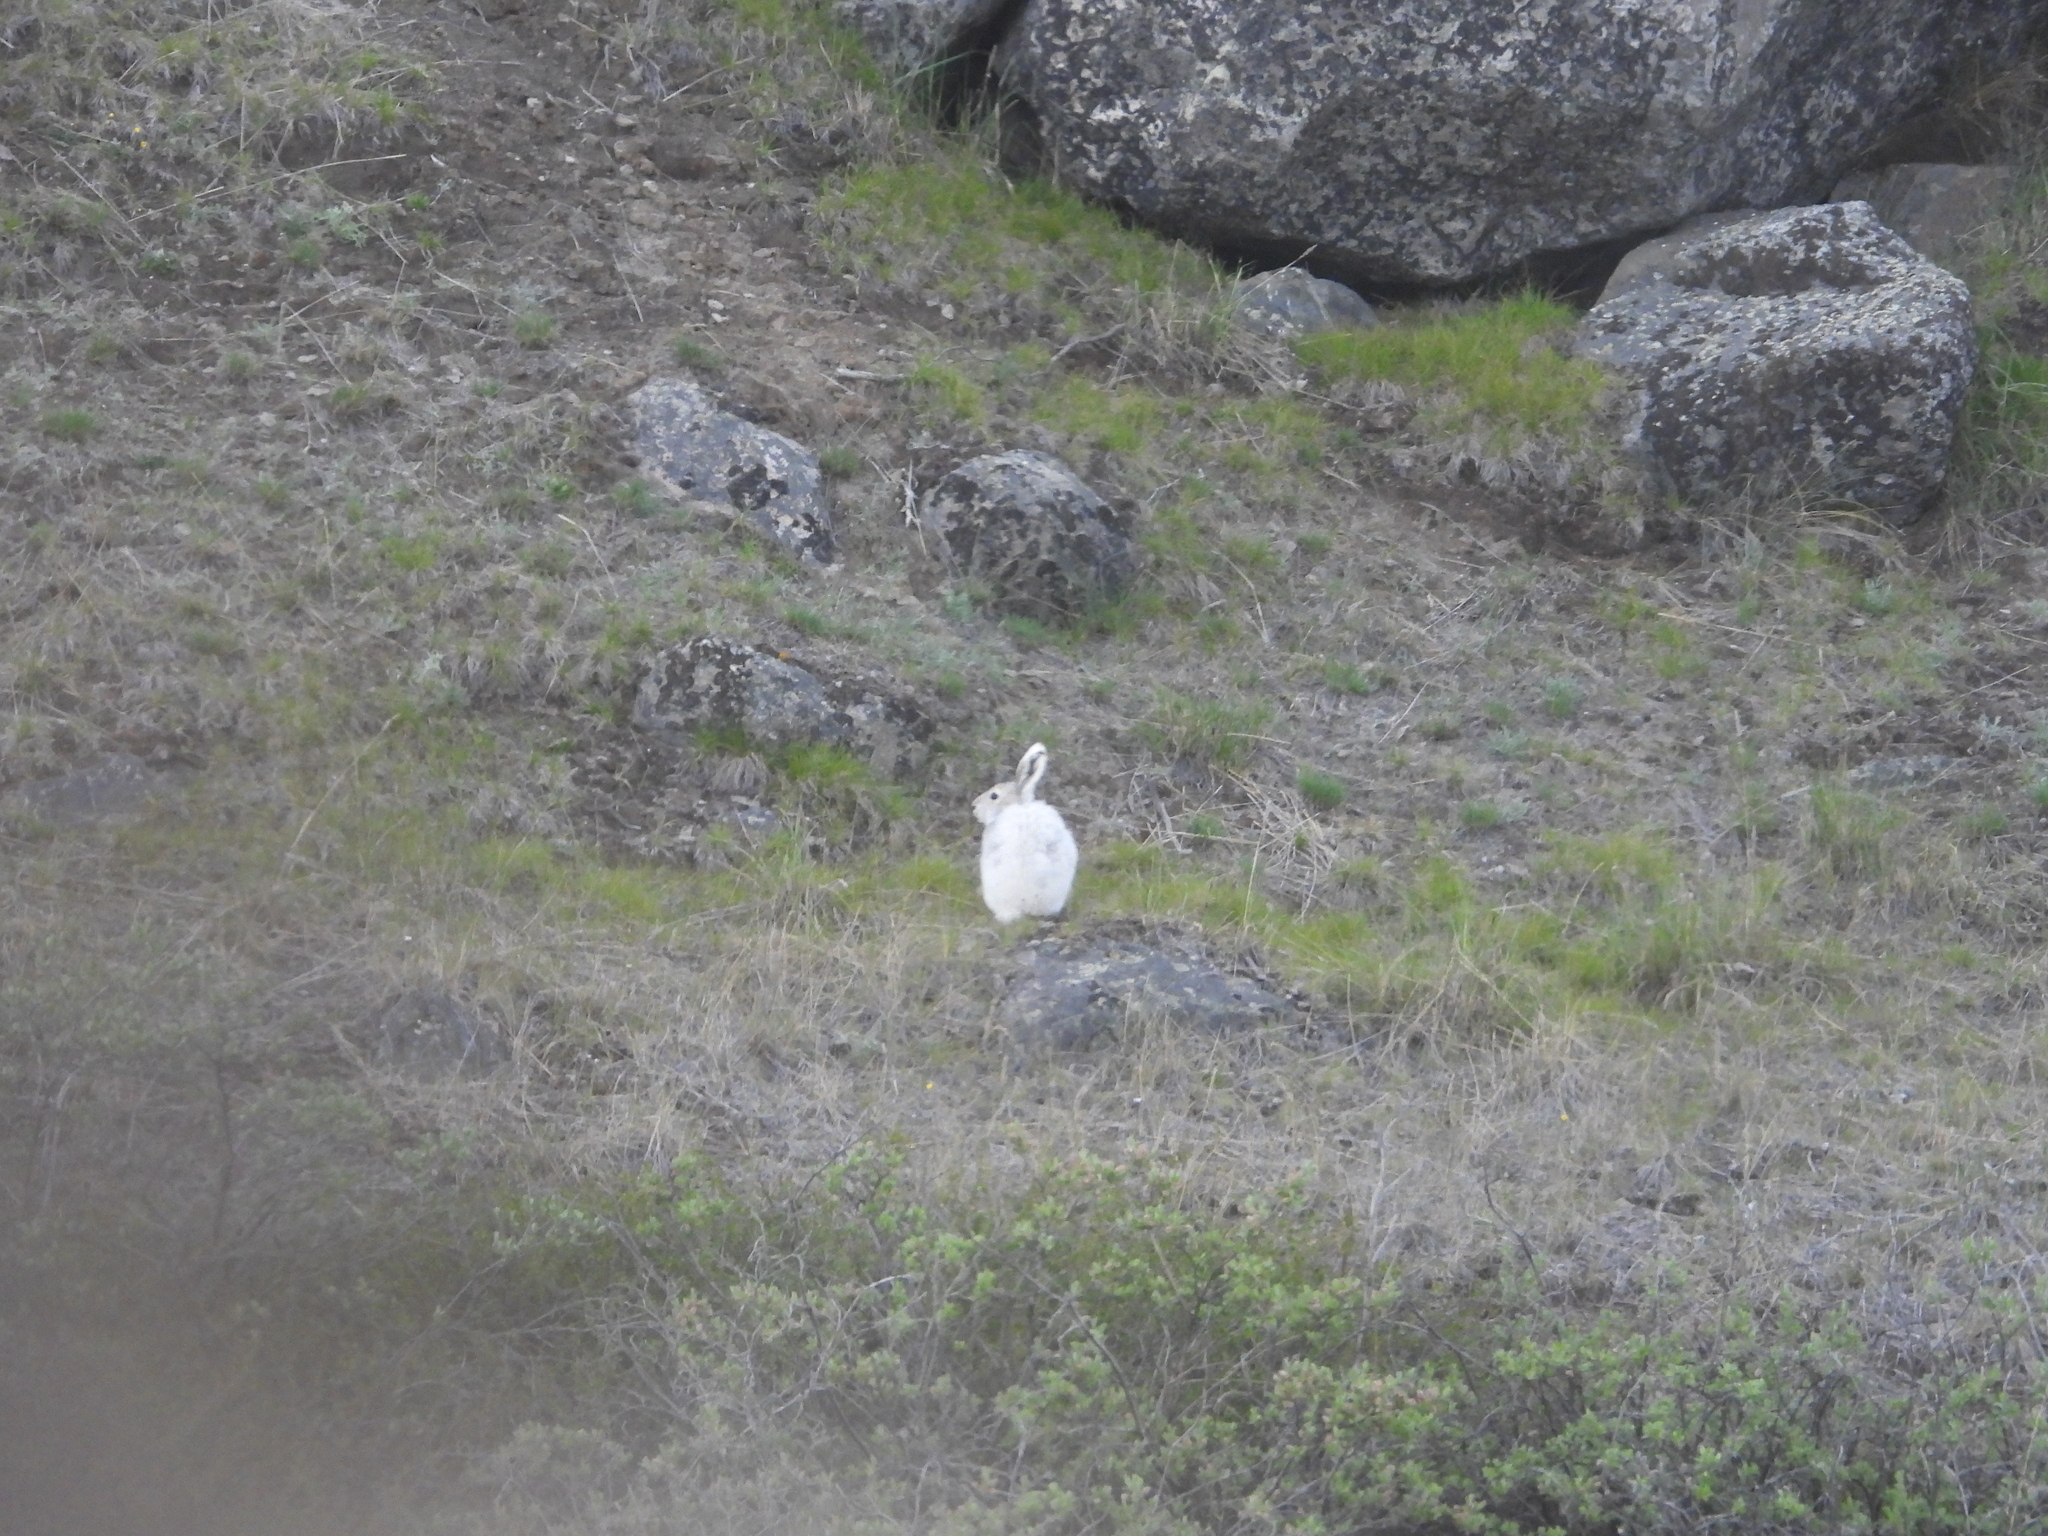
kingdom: Animalia
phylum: Chordata
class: Mammalia
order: Lagomorpha
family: Leporidae
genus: Lepus
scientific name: Lepus arcticus
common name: Arctic hare
